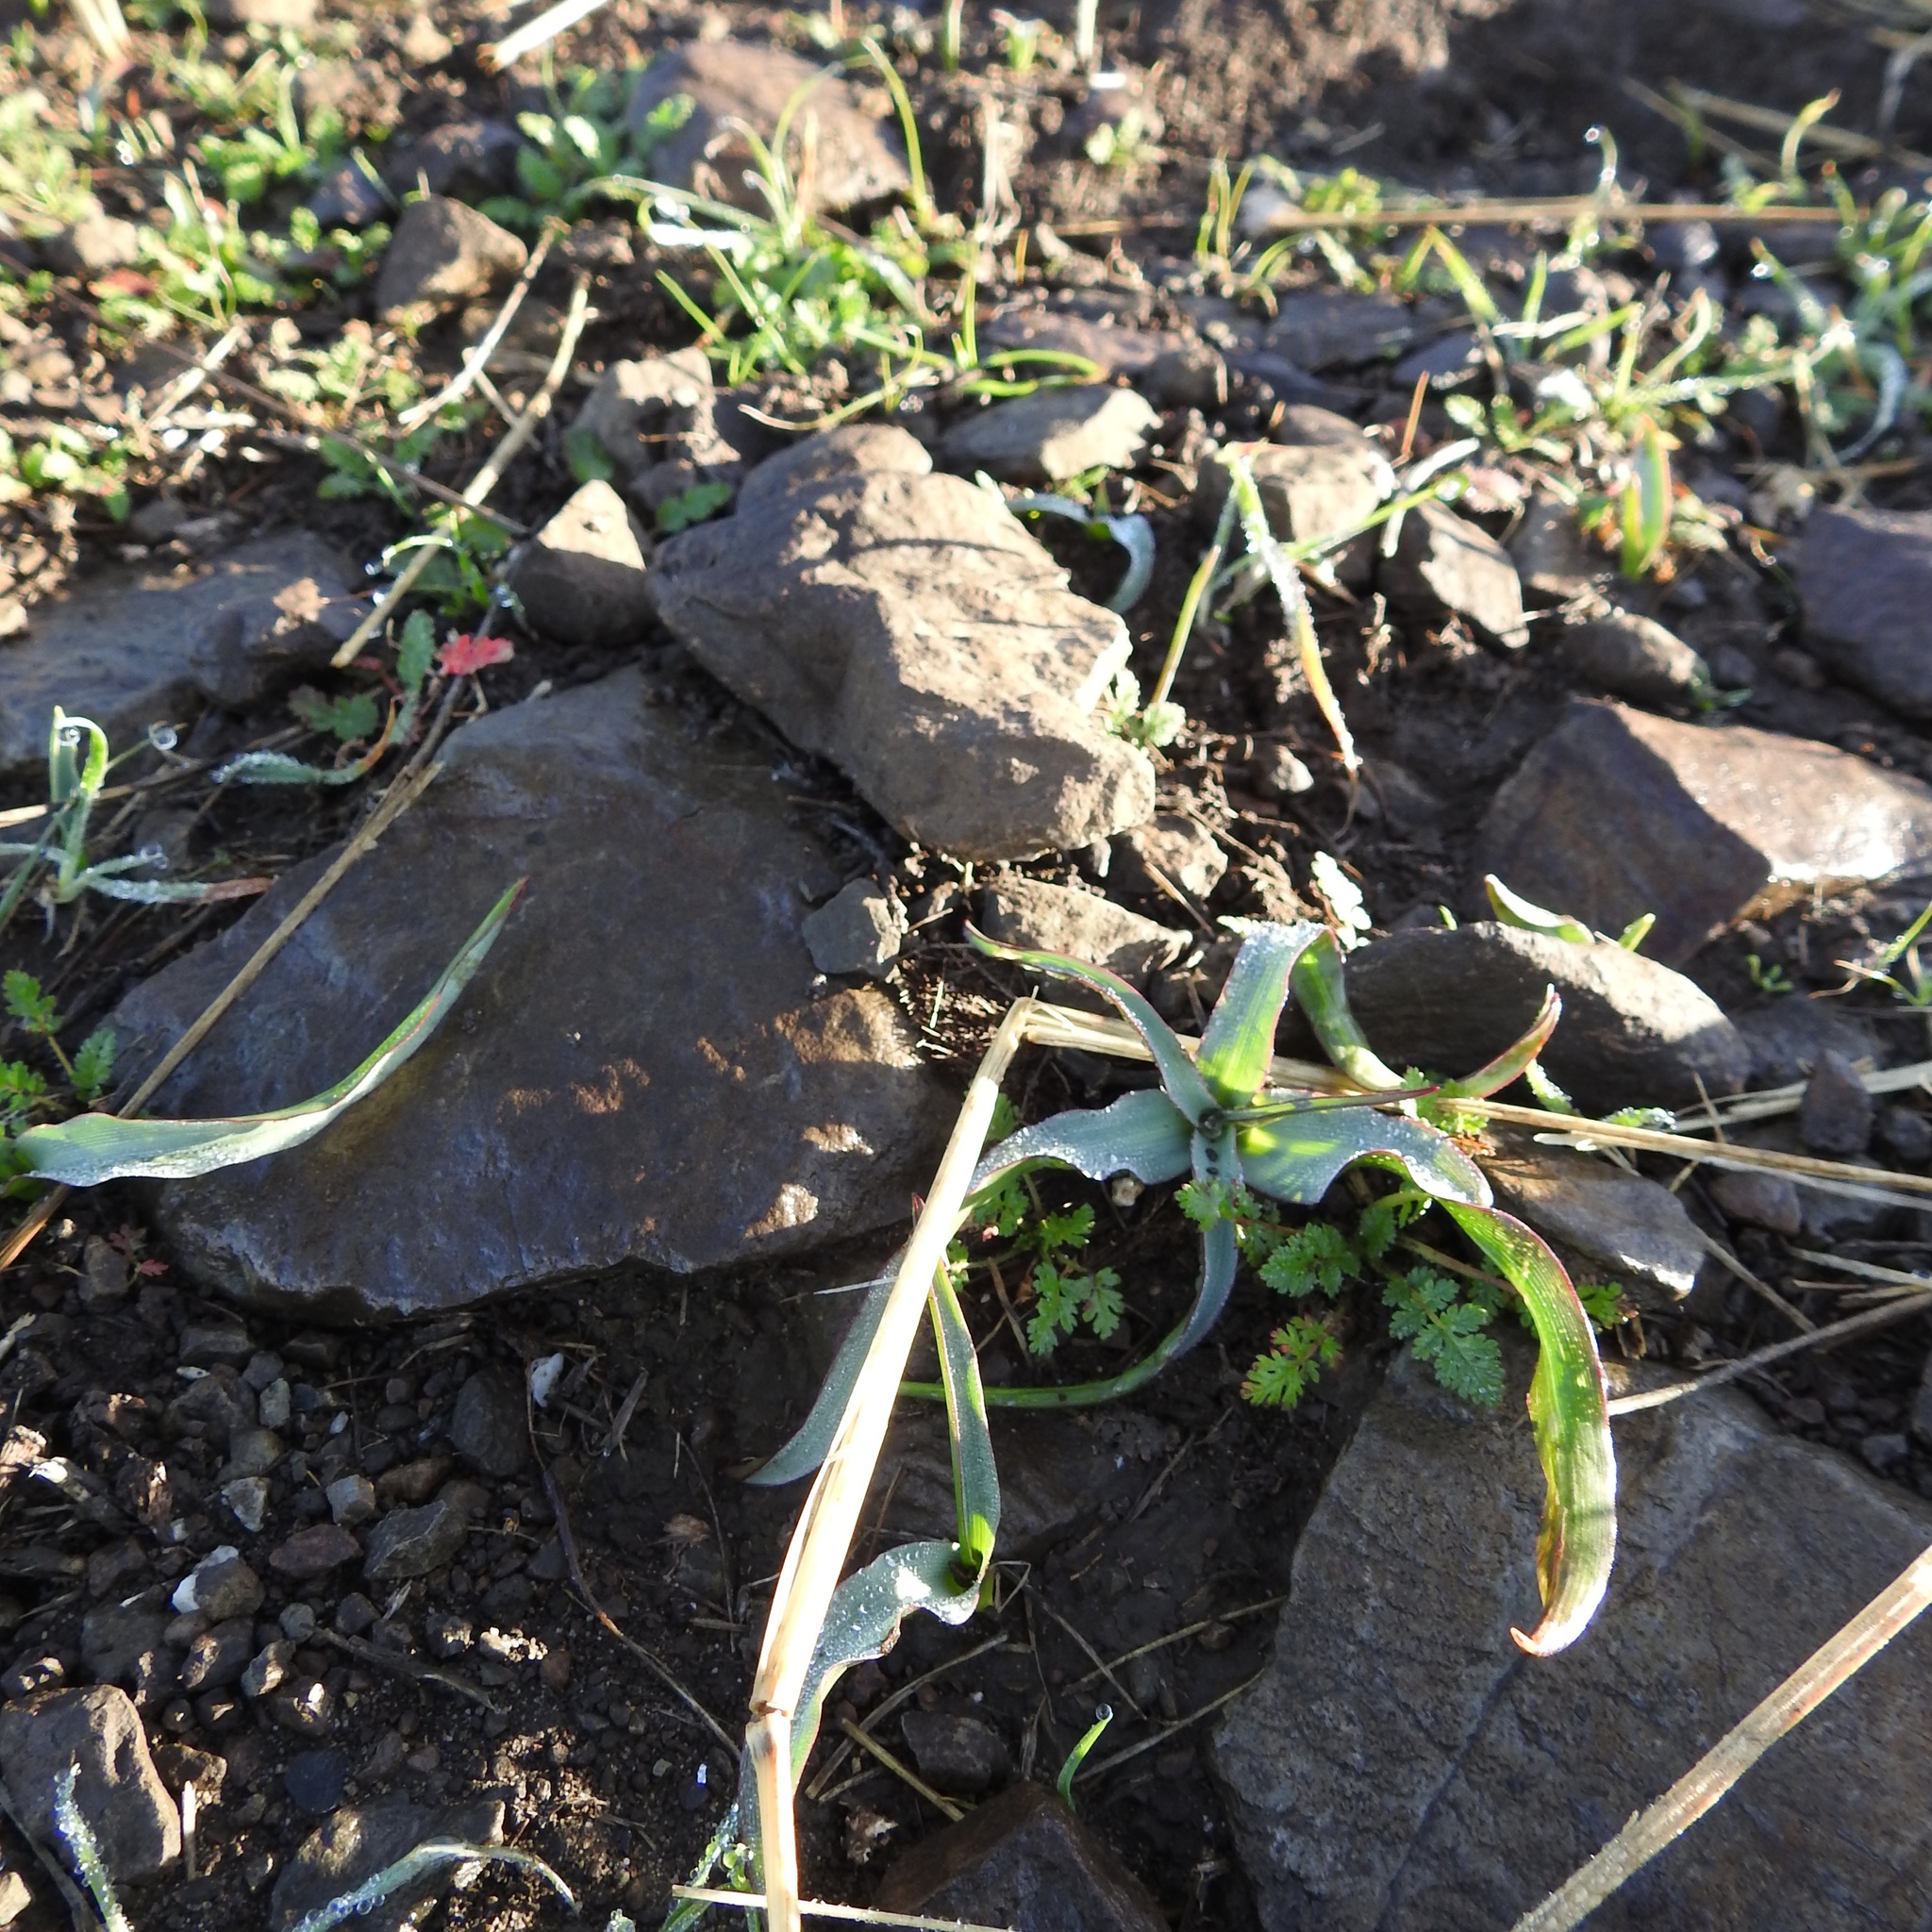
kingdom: Plantae
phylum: Tracheophyta
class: Liliopsida
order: Asparagales
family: Asparagaceae
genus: Chlorogalum
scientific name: Chlorogalum pomeridianum
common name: Amole
